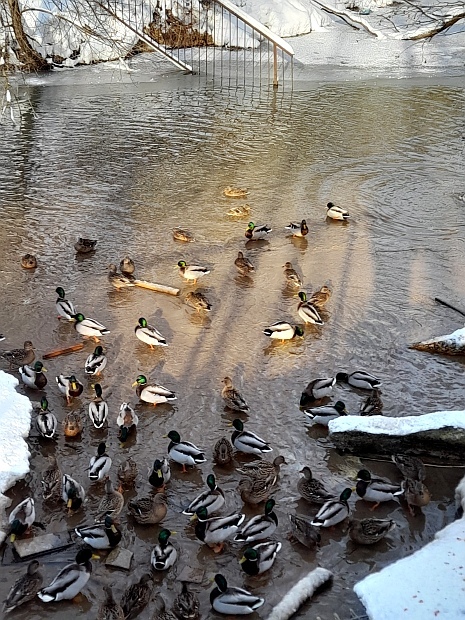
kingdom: Animalia
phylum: Chordata
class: Aves
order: Anseriformes
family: Anatidae
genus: Anas
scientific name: Anas platyrhynchos
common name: Mallard
